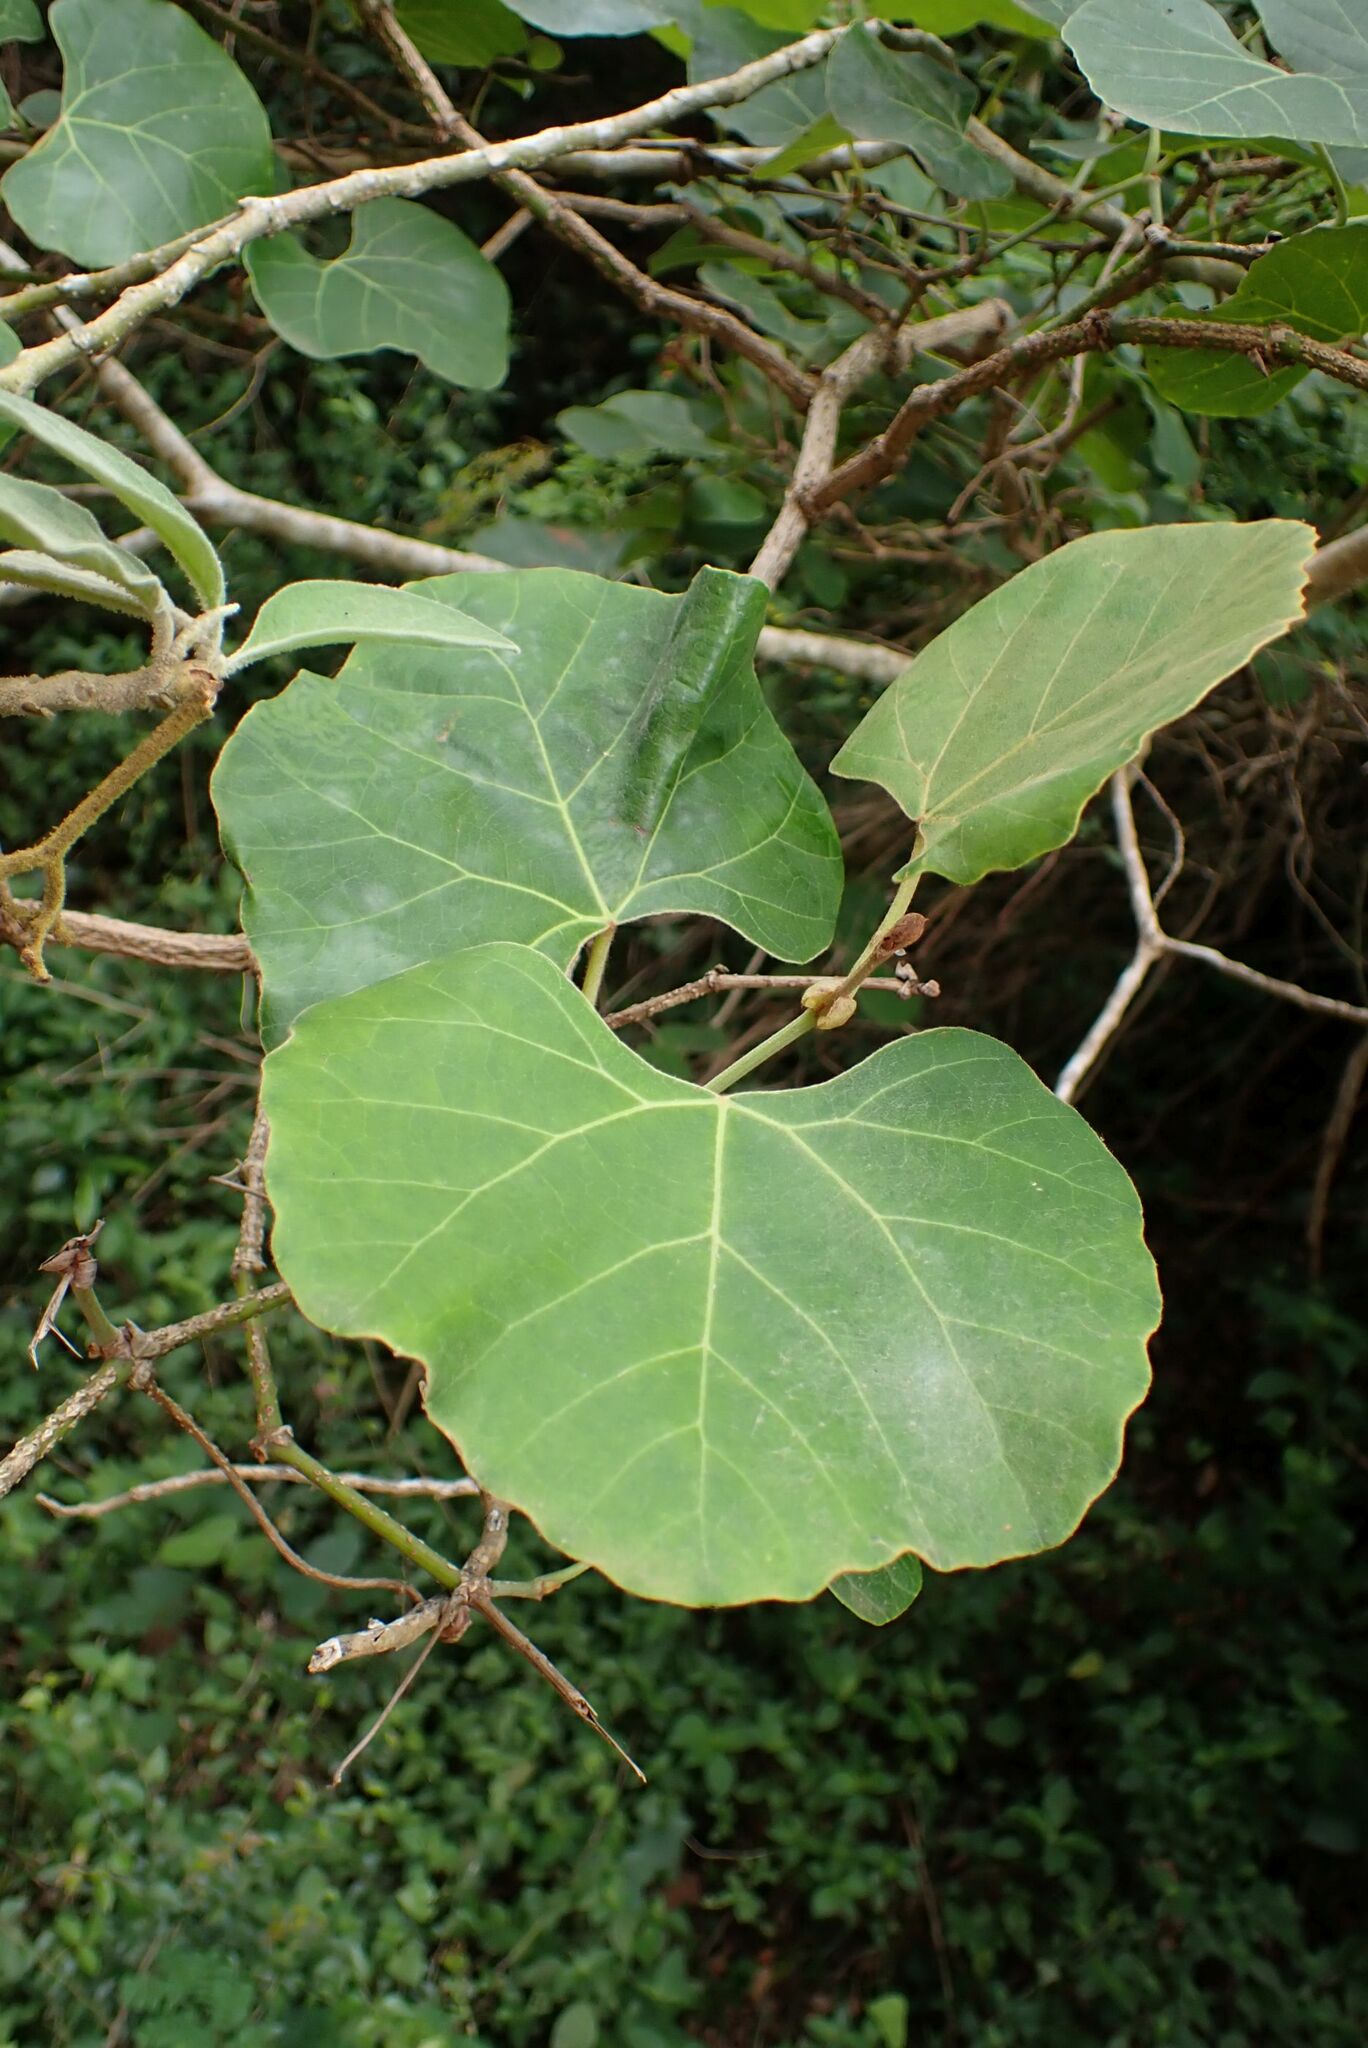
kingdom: Plantae
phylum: Tracheophyta
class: Magnoliopsida
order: Vitales
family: Vitaceae
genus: Rhoicissus
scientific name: Rhoicissus tomentosa
